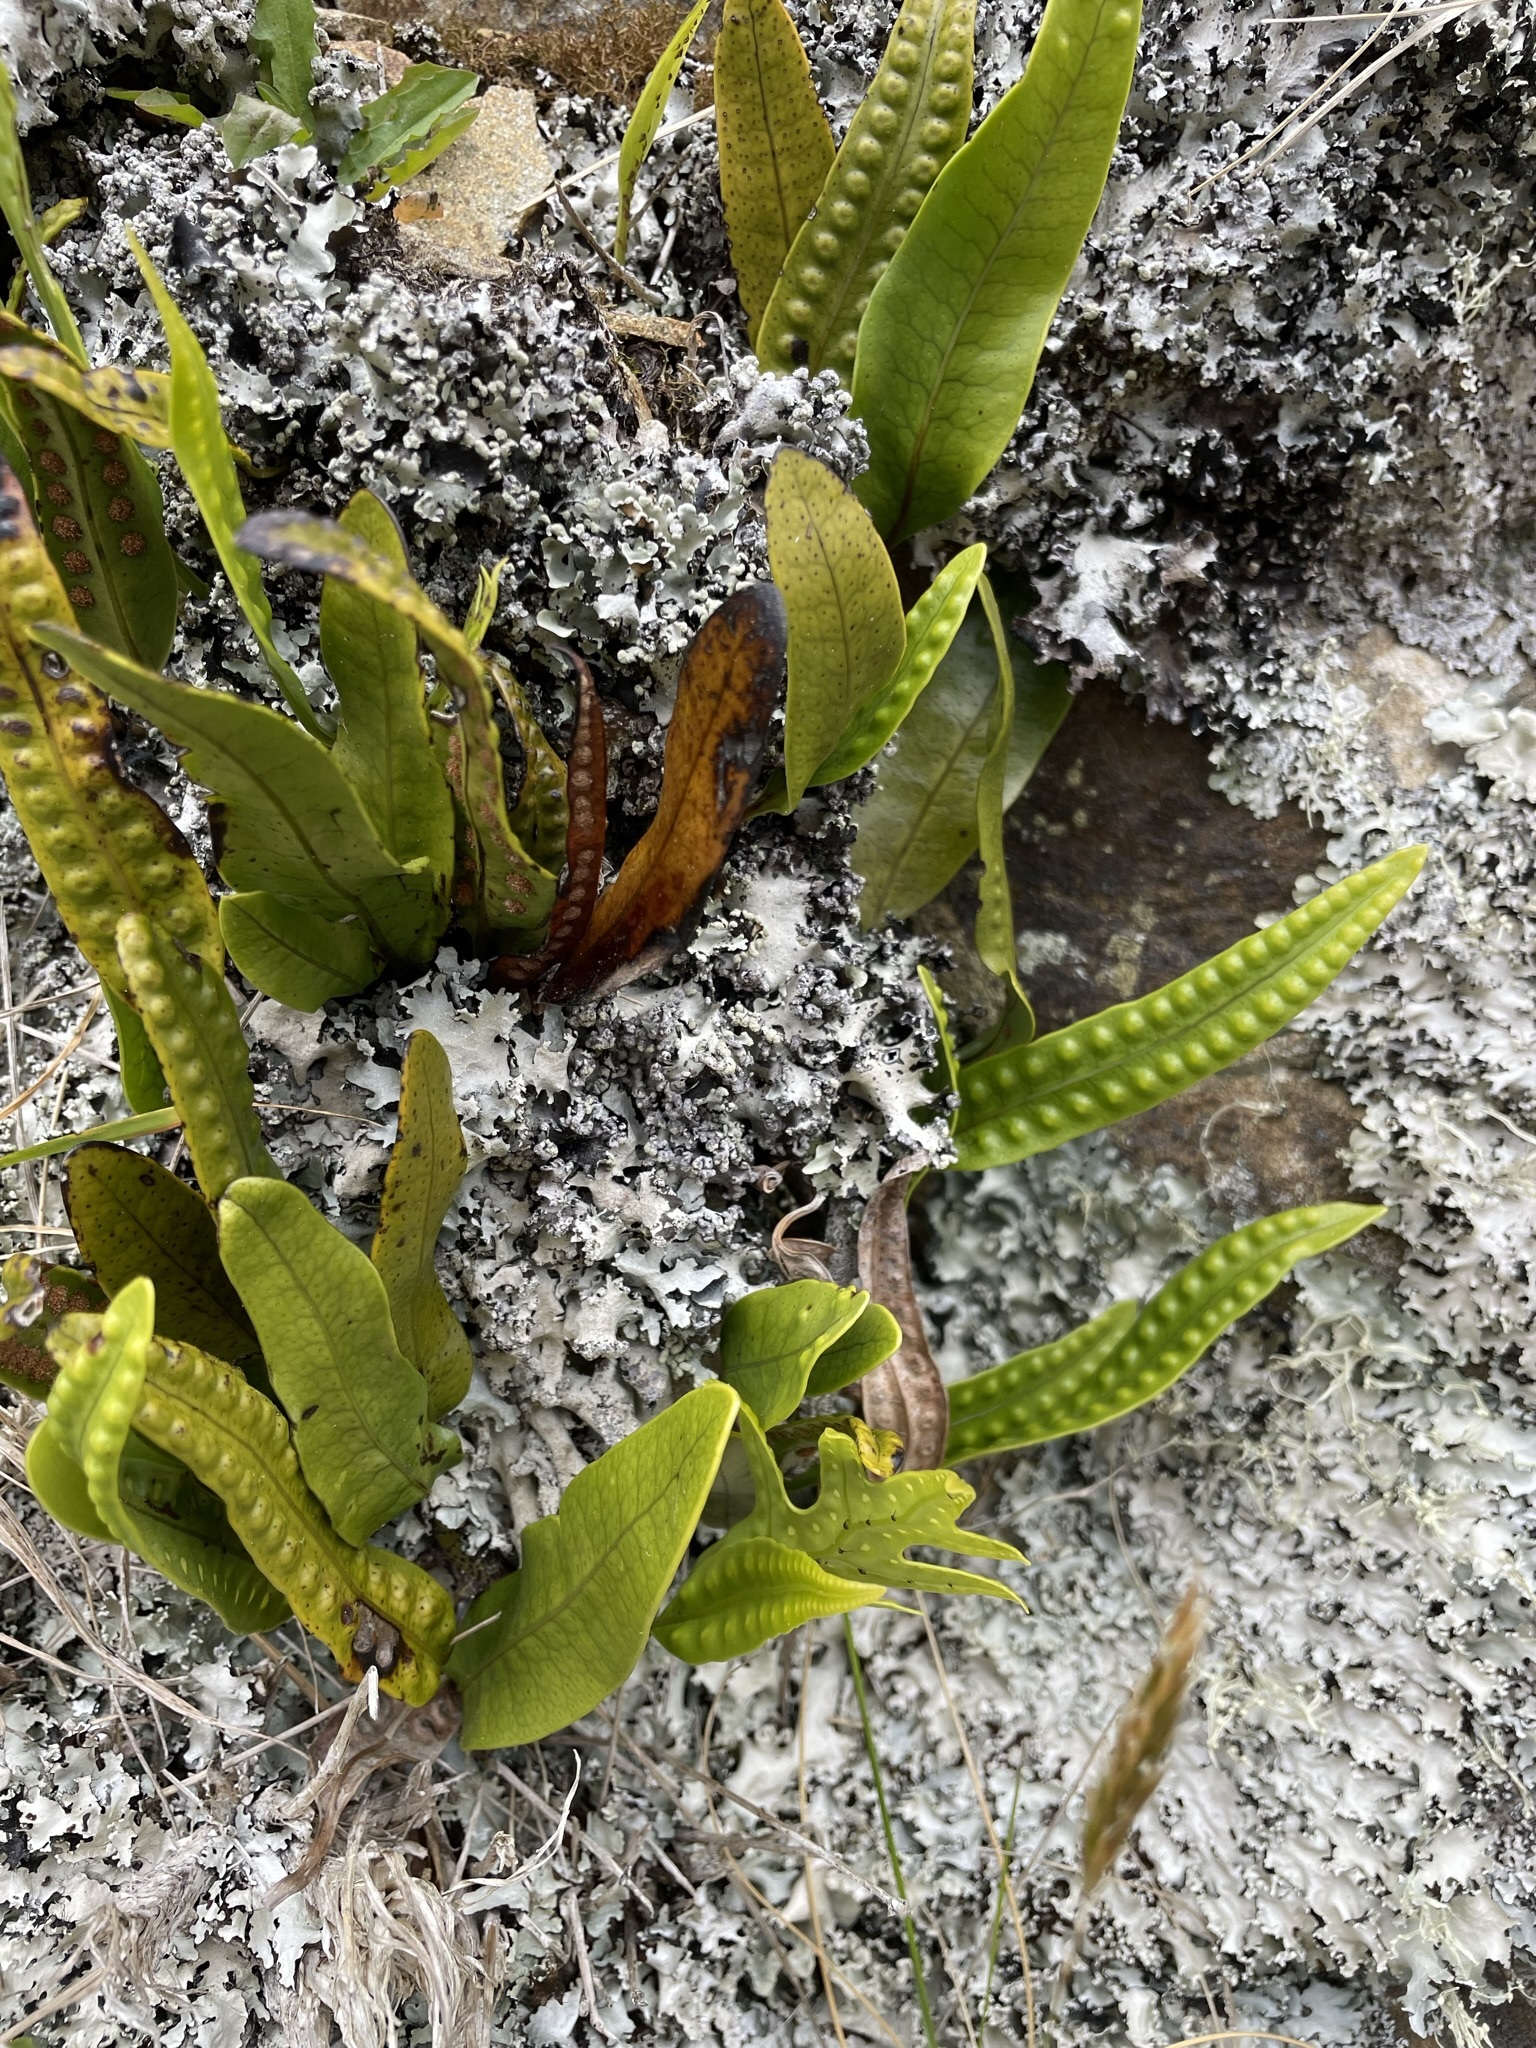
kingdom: Plantae
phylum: Tracheophyta
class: Polypodiopsida
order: Polypodiales
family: Polypodiaceae
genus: Lecanopteris
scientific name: Lecanopteris pustulata
